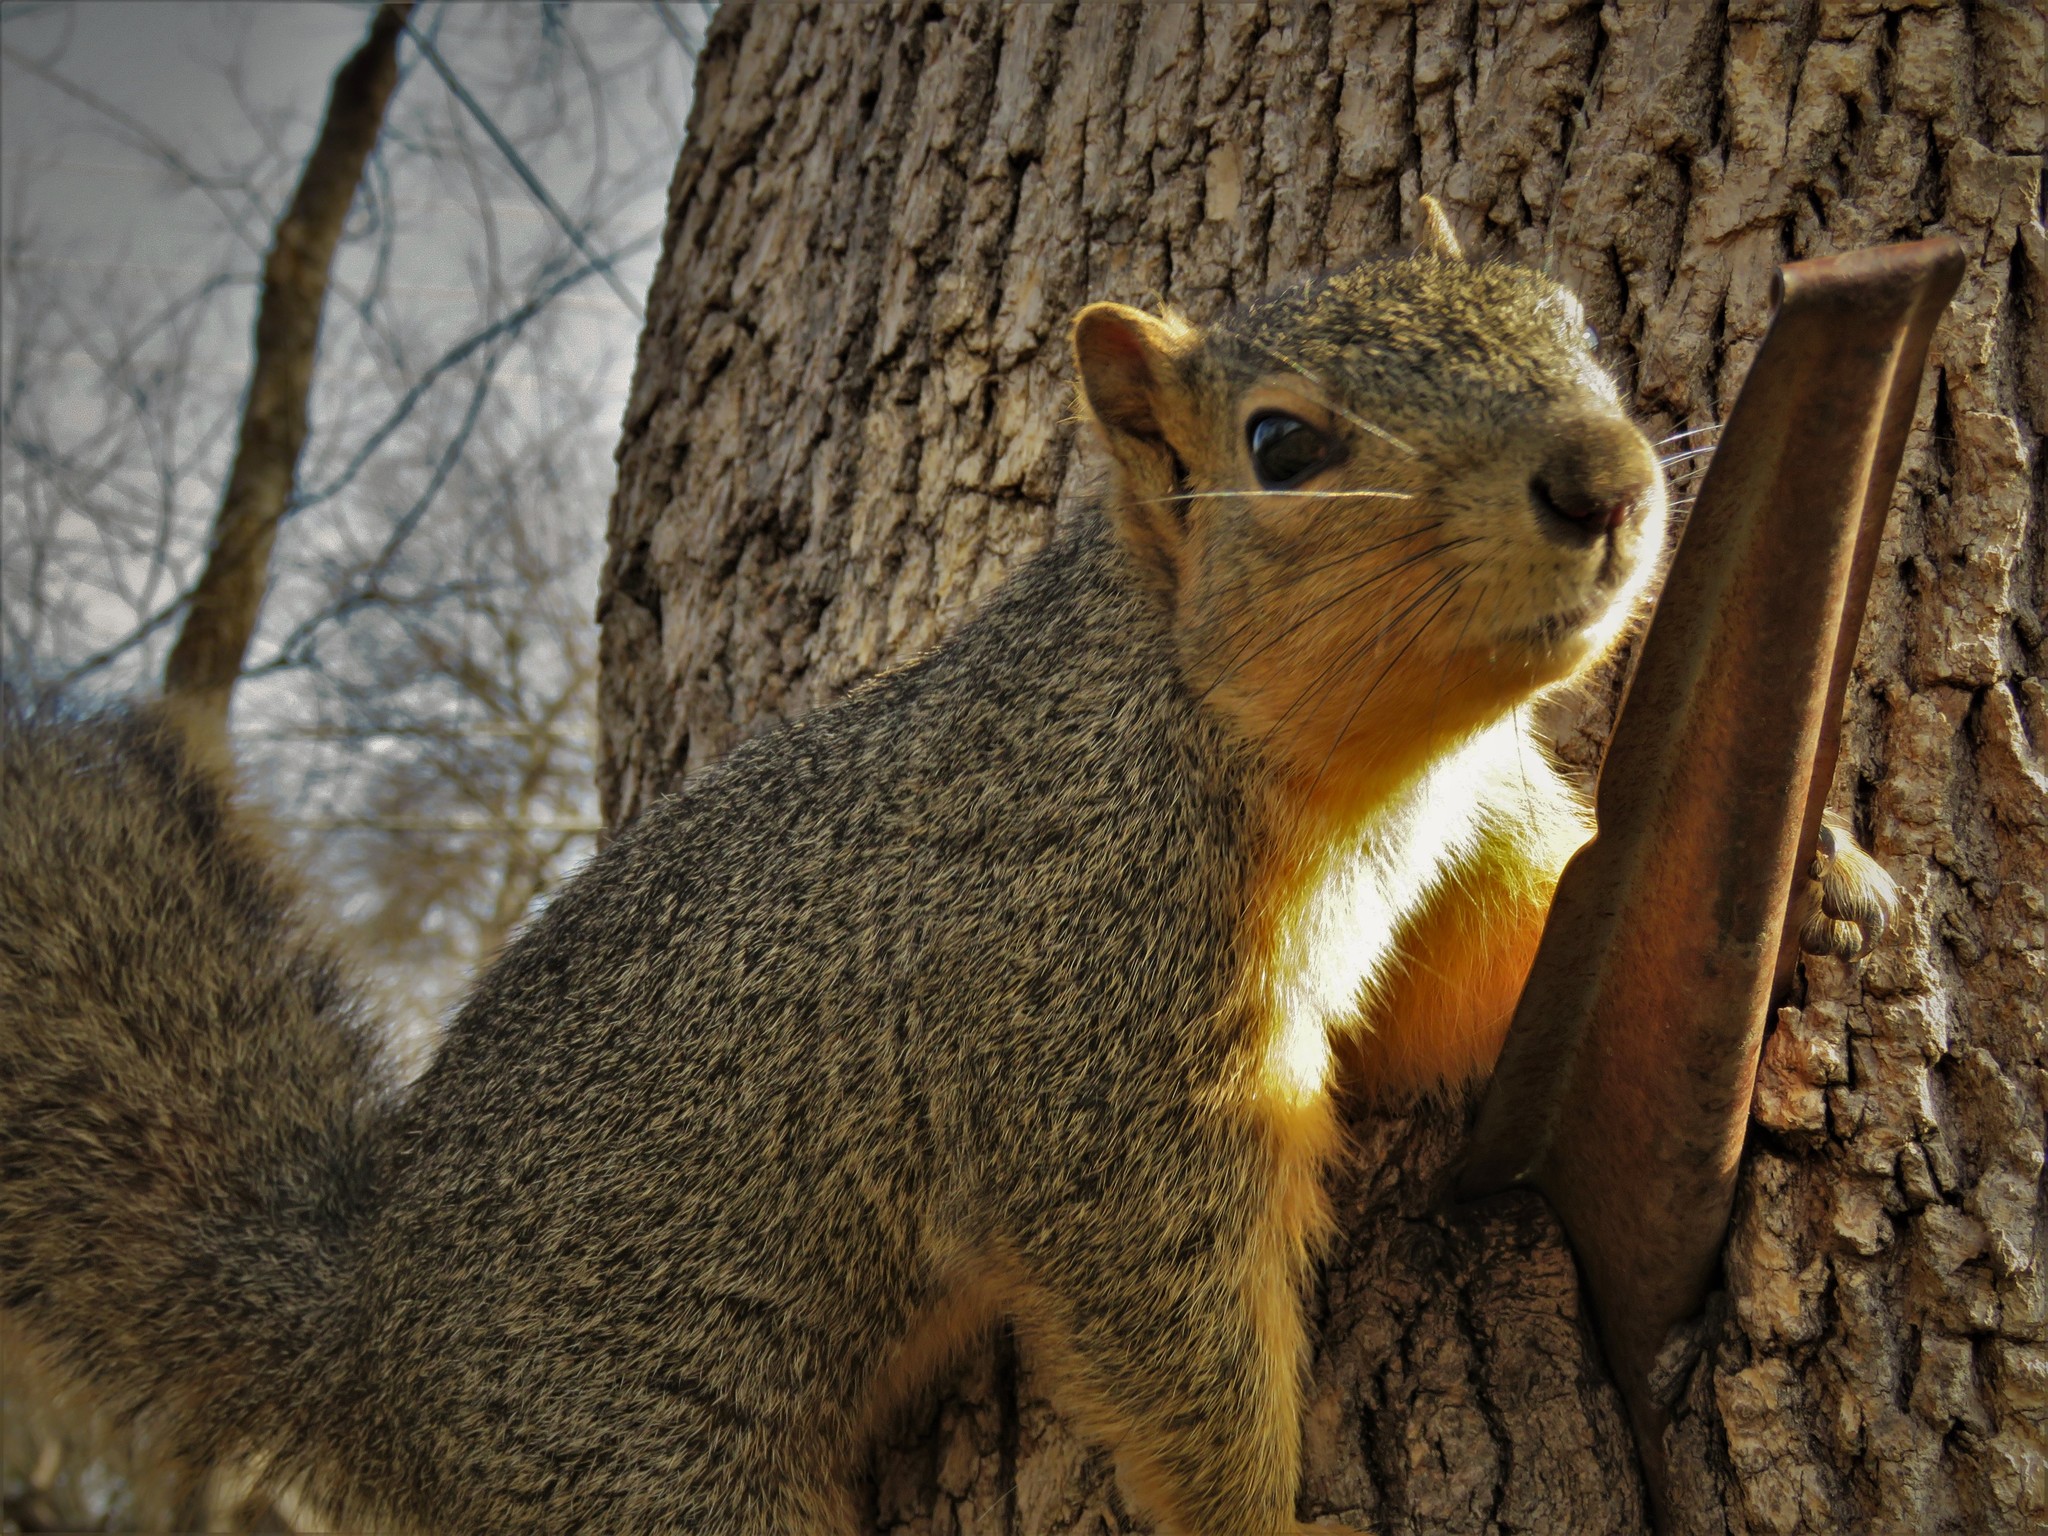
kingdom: Animalia
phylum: Chordata
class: Mammalia
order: Rodentia
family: Sciuridae
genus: Sciurus
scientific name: Sciurus niger
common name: Fox squirrel
